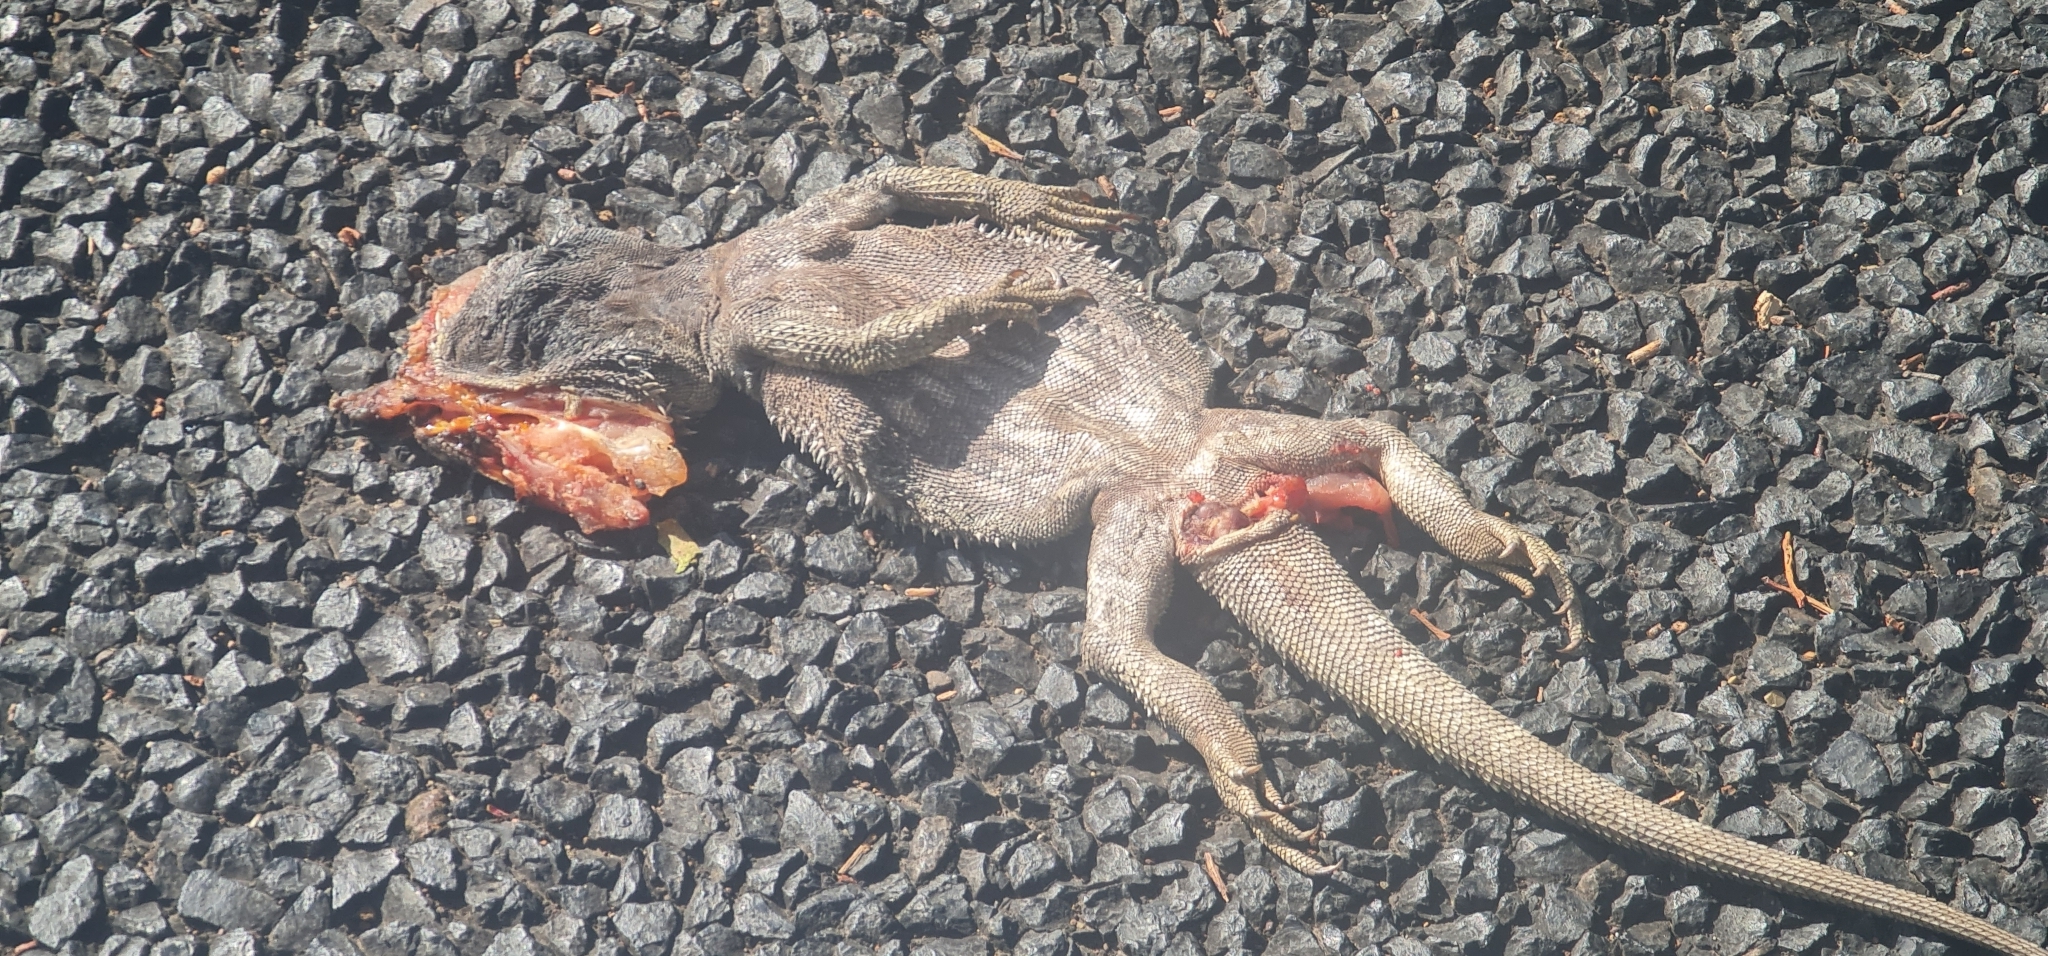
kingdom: Animalia
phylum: Chordata
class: Squamata
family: Agamidae
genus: Pogona
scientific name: Pogona barbata
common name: Bearded dragon
